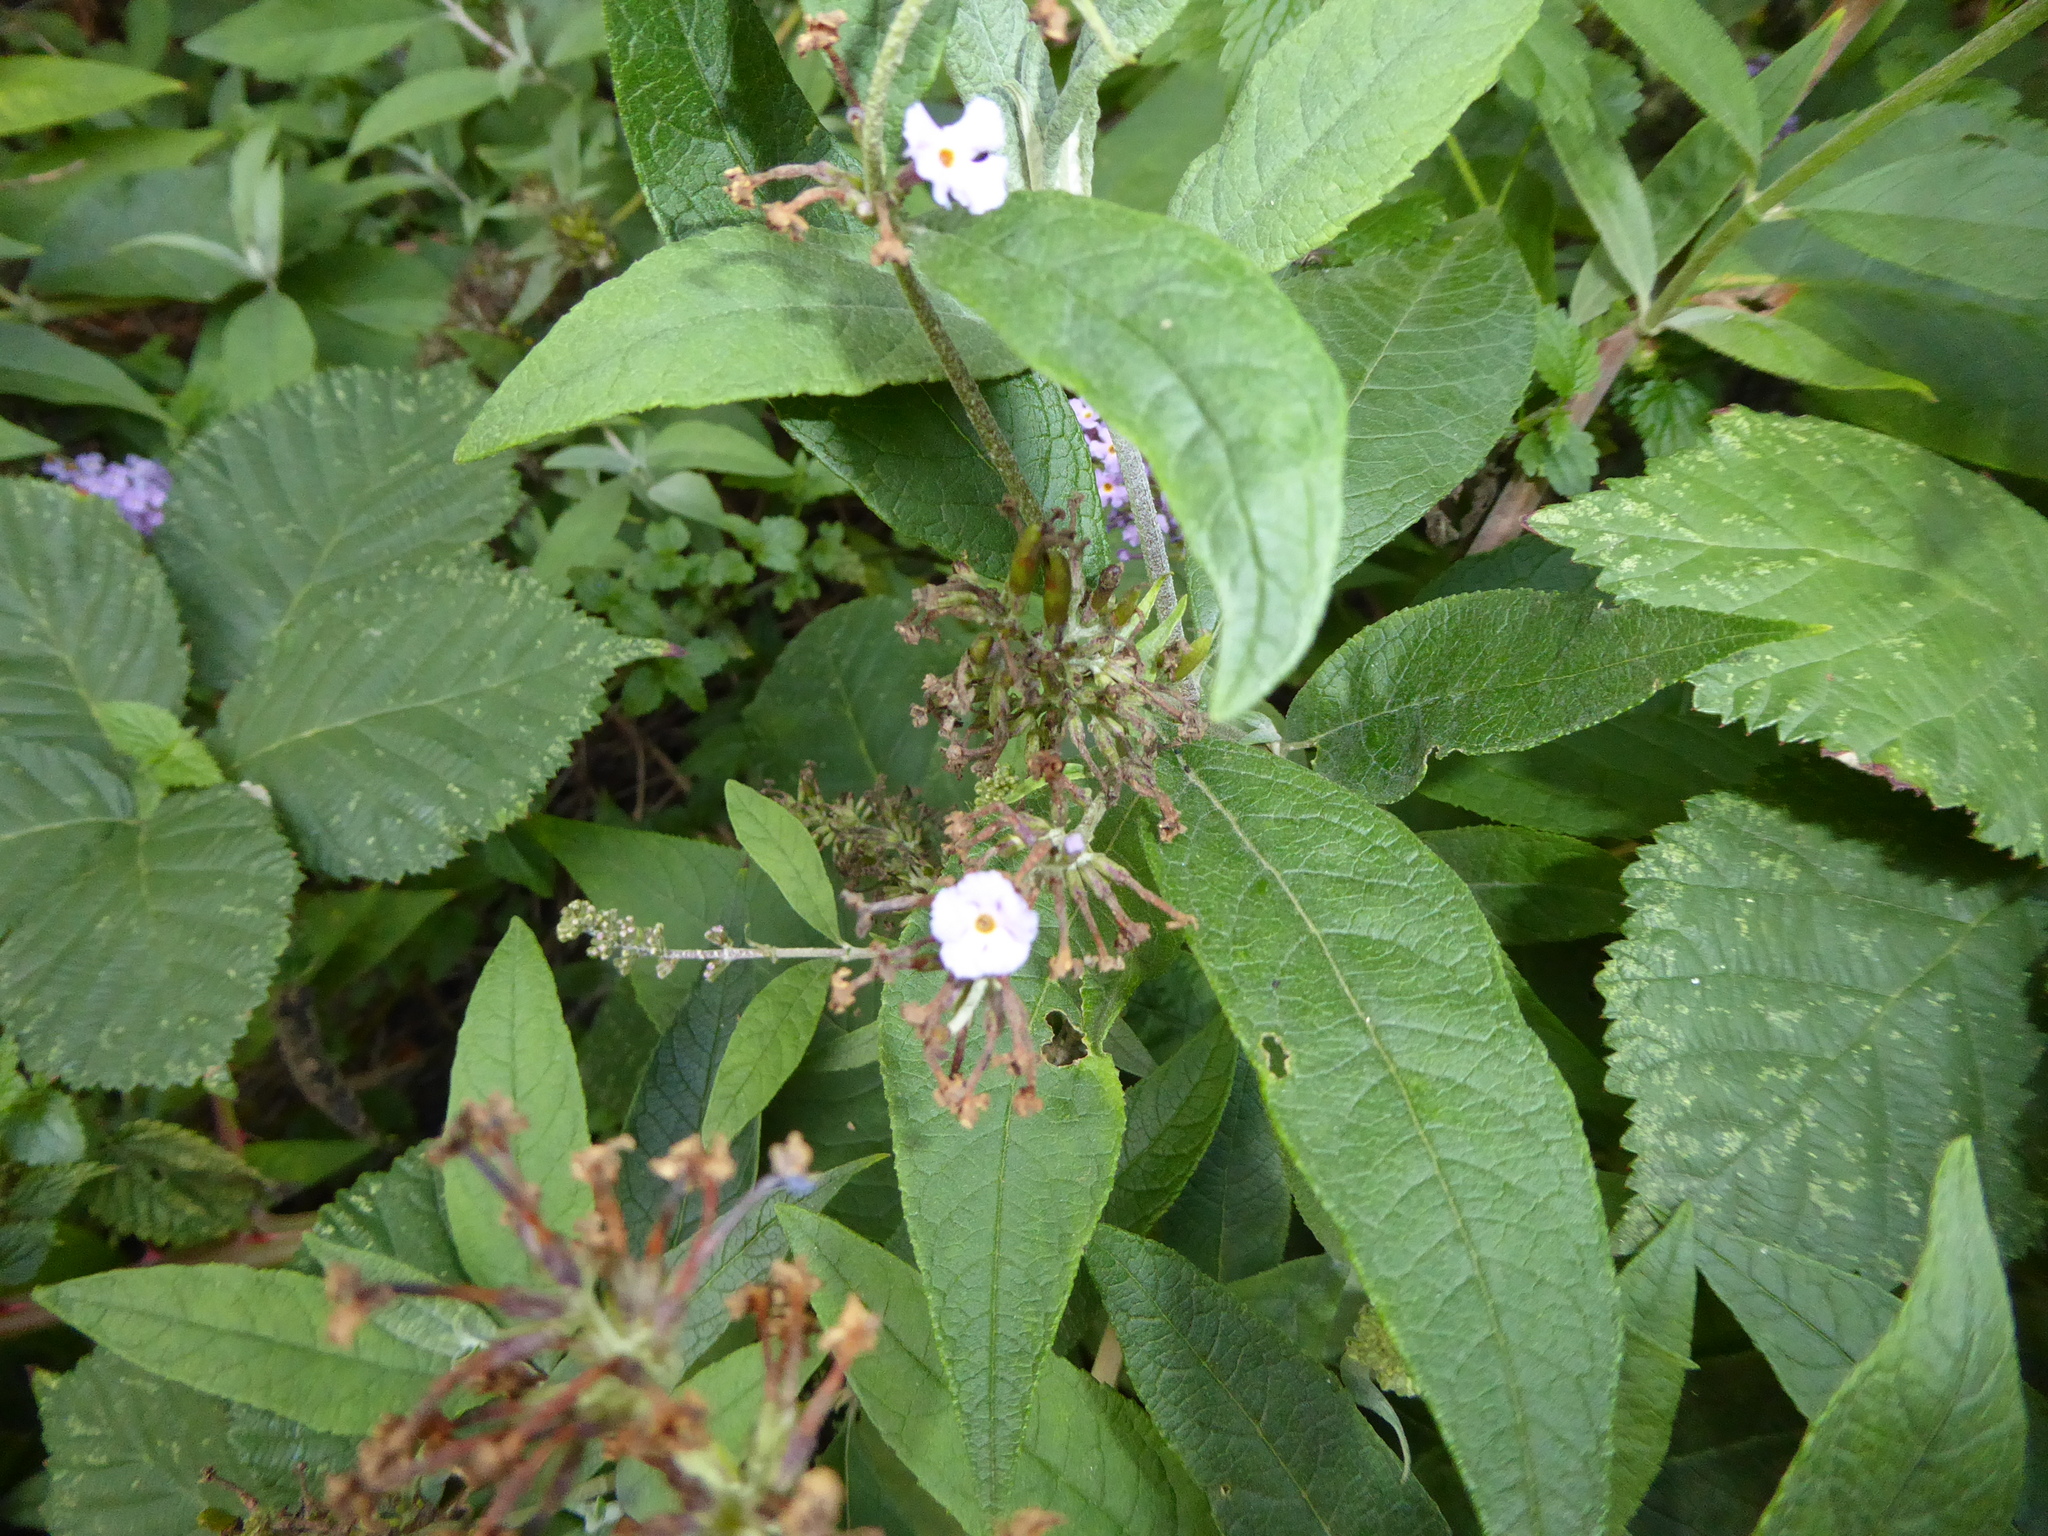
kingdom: Plantae
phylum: Tracheophyta
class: Magnoliopsida
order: Lamiales
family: Scrophulariaceae
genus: Buddleja
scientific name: Buddleja davidii
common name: Butterfly-bush
